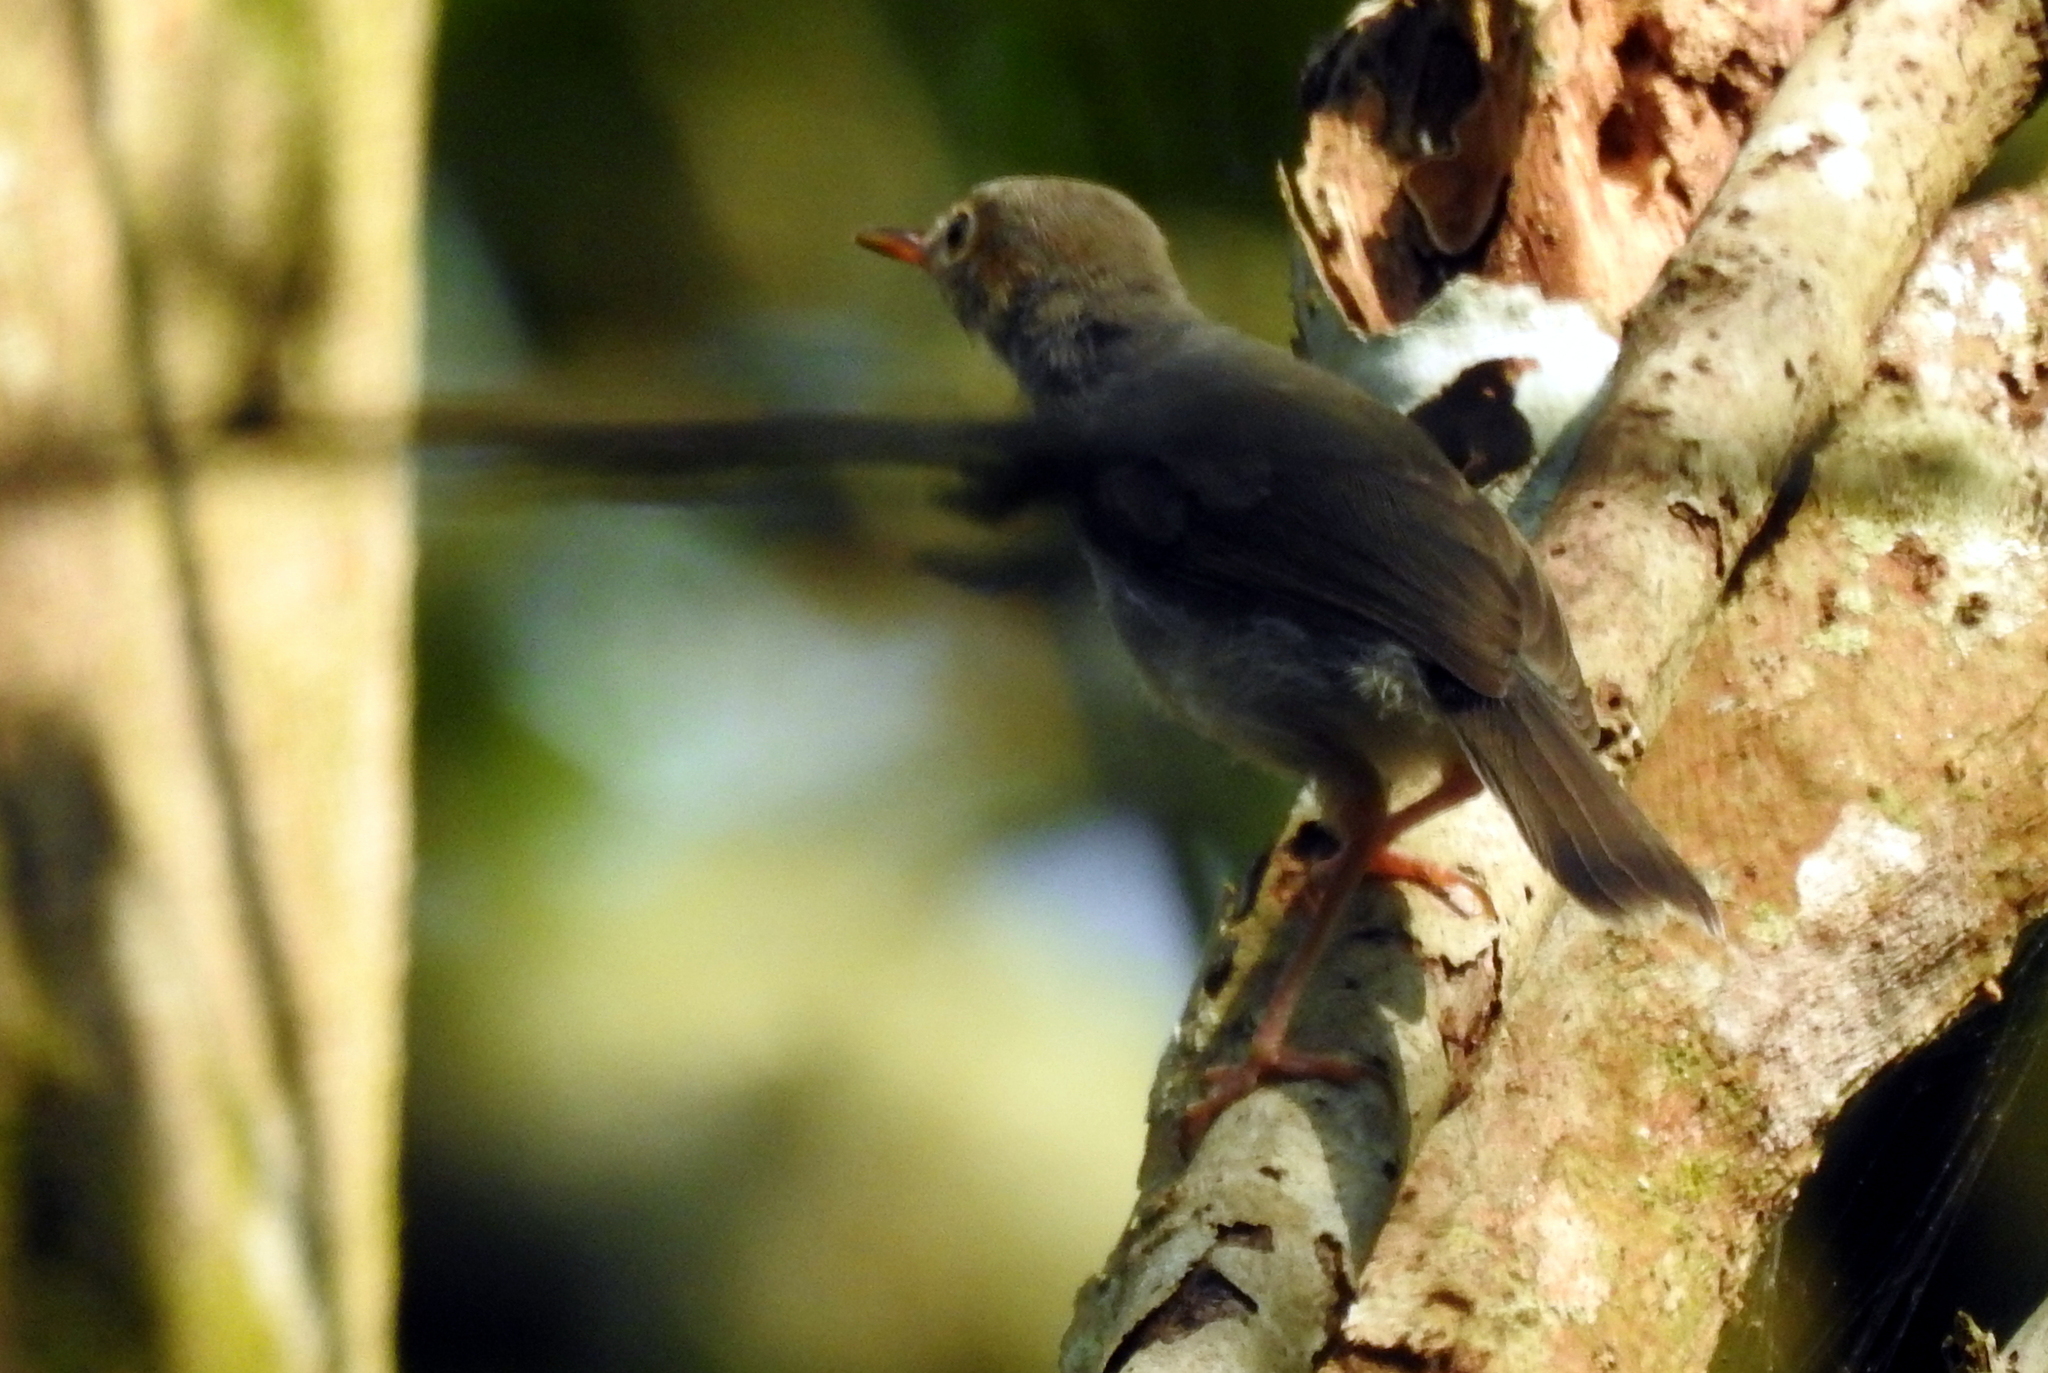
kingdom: Animalia
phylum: Chordata
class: Aves
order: Passeriformes
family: Cisticolidae
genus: Orthotomus
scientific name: Orthotomus ruficeps
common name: Ashy tailorbird
